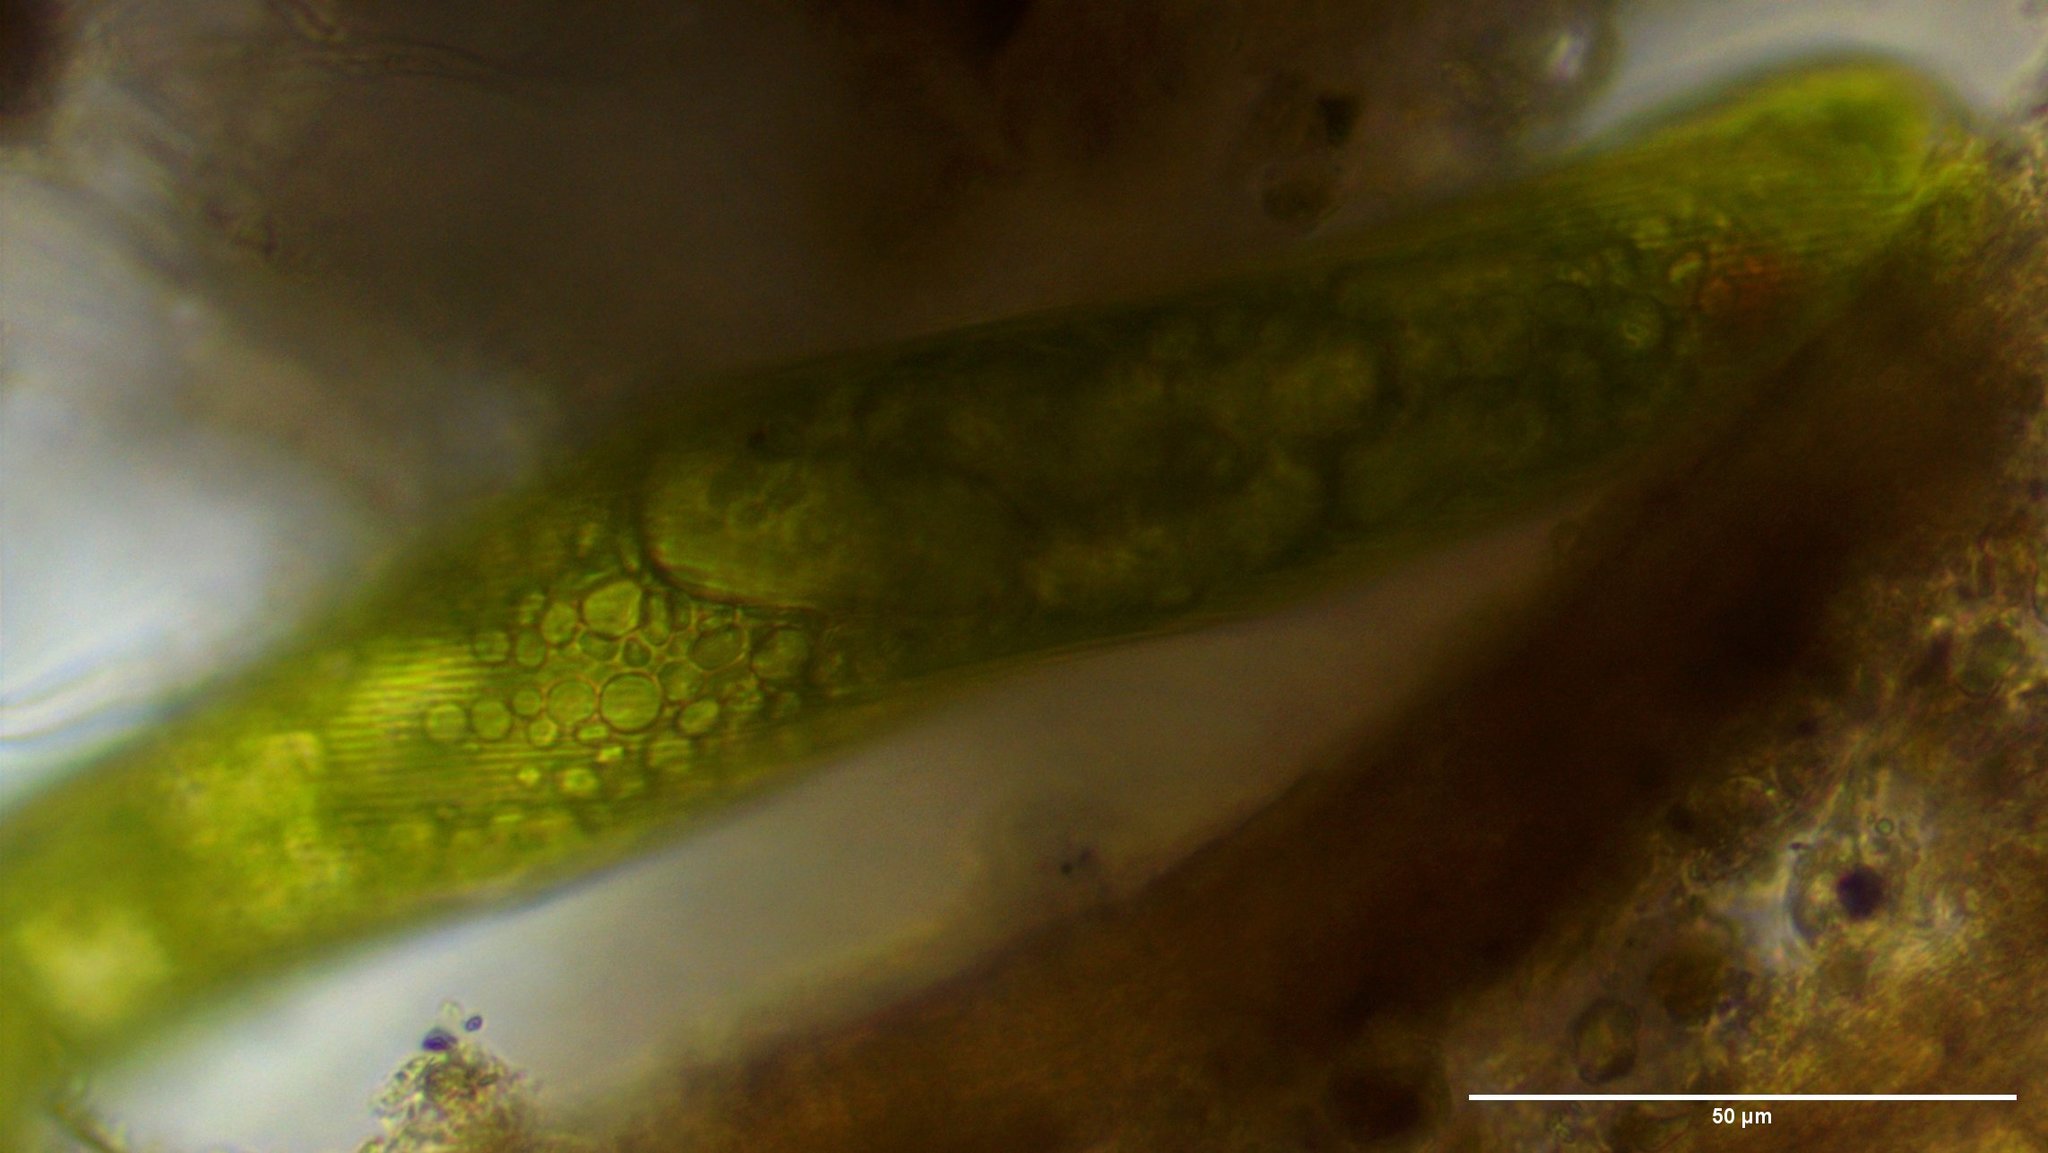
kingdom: Protozoa
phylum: Euglenozoa
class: Euglenoidea
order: Euglenida
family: Phacidae
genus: Lepocinclis
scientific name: Lepocinclis helicoidea
